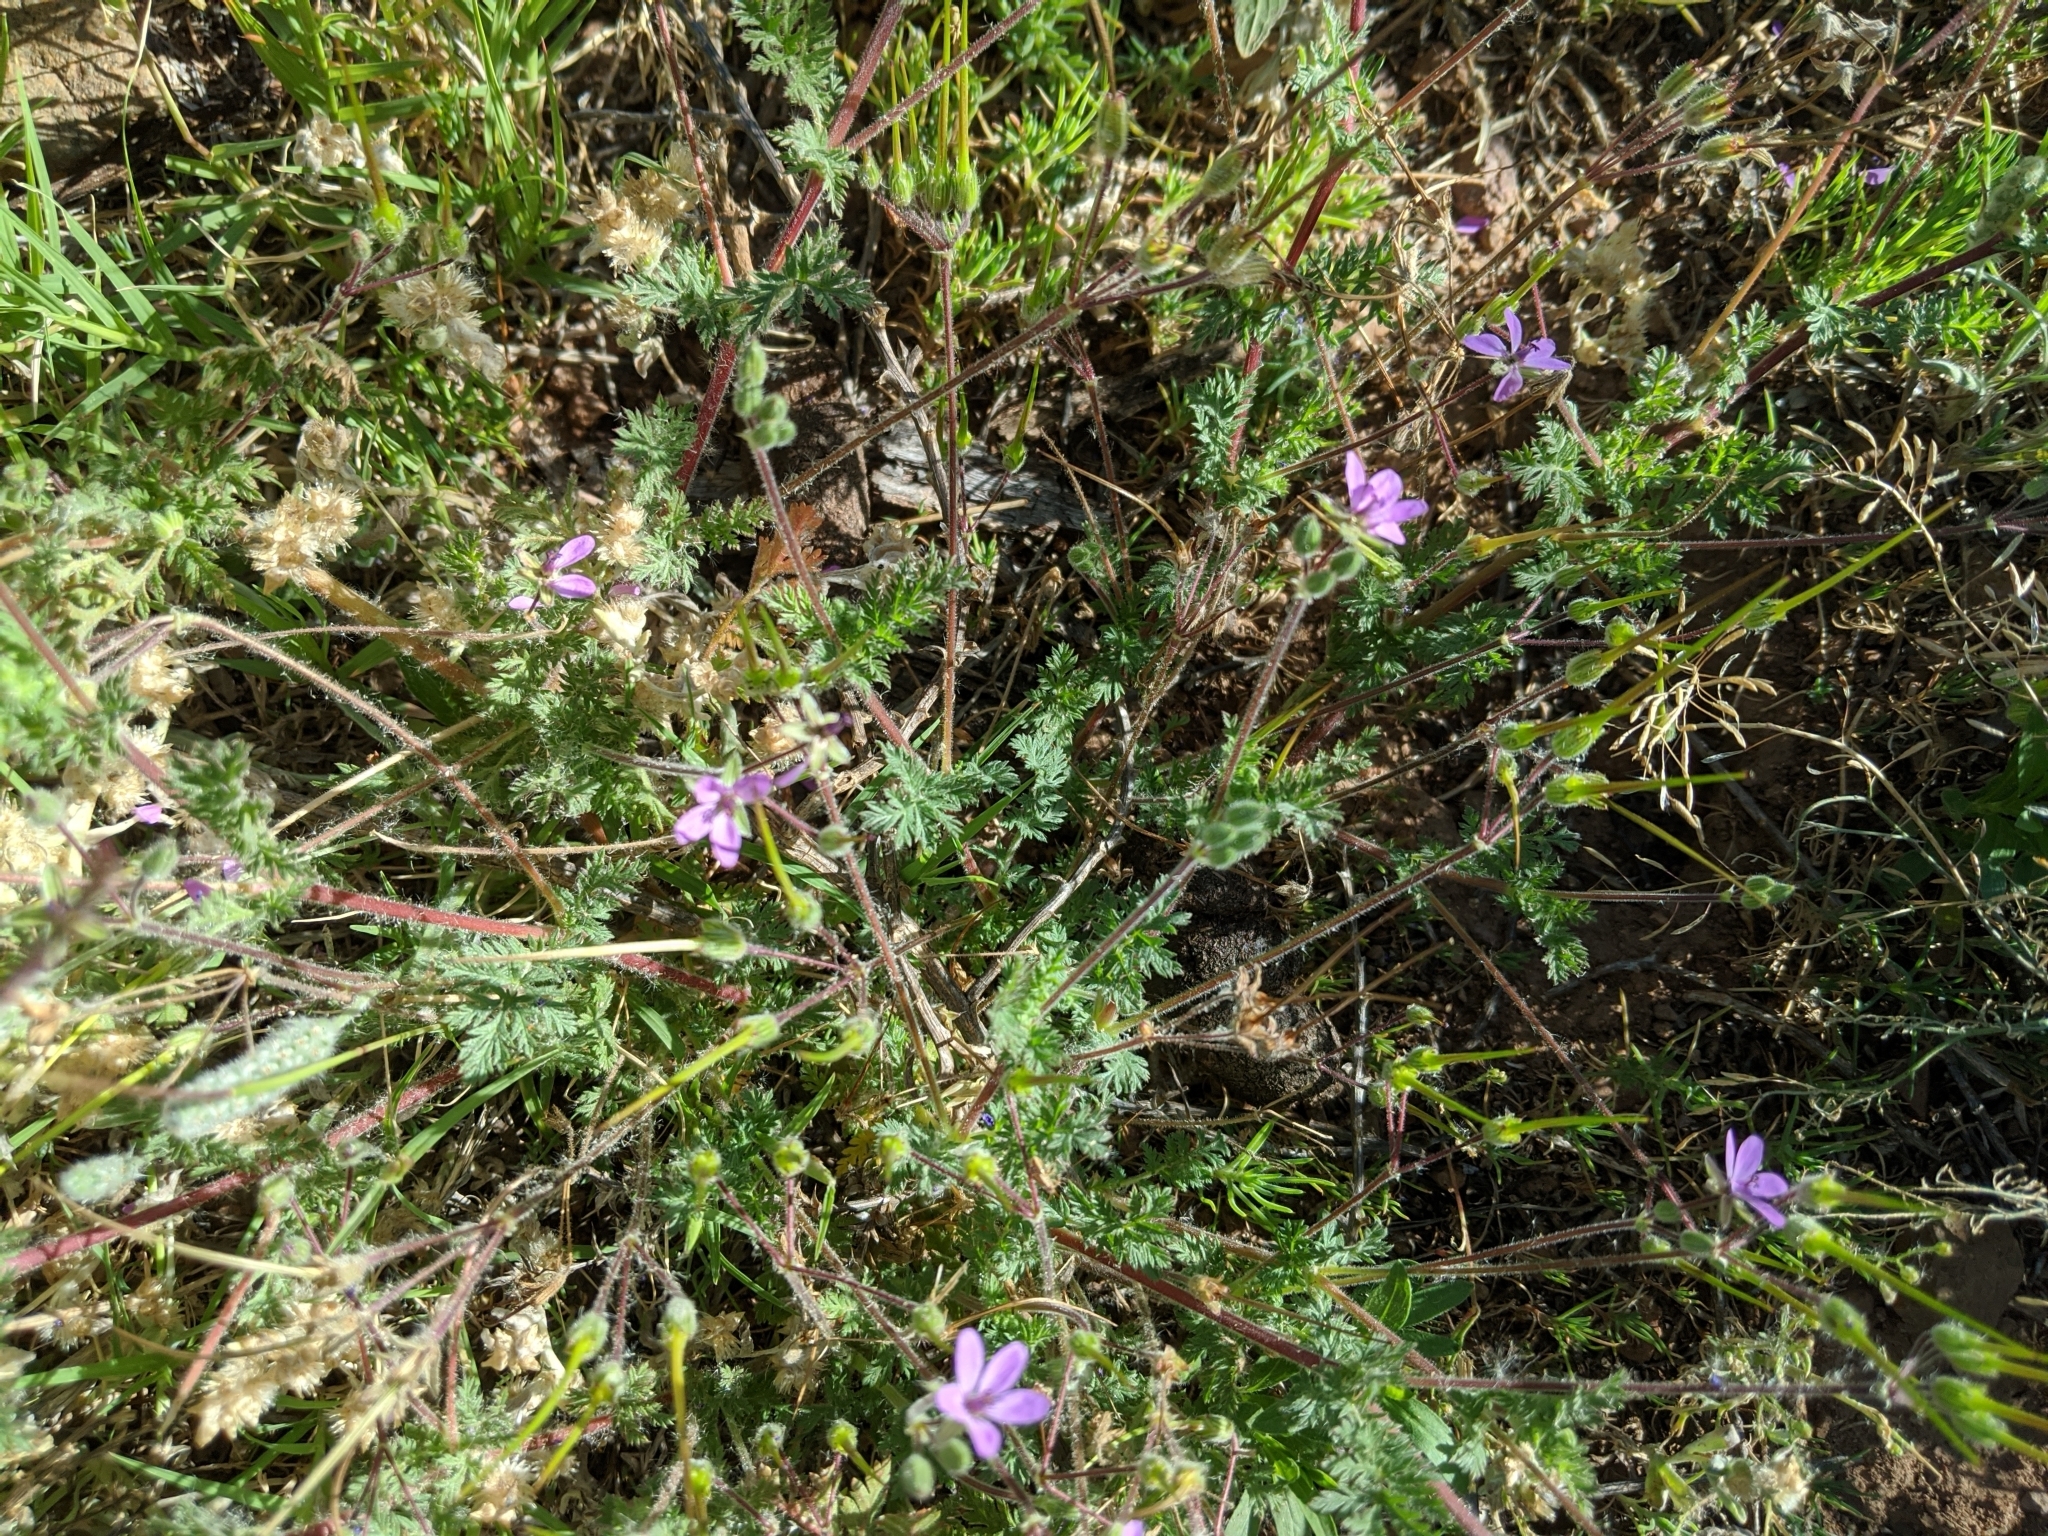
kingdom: Plantae
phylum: Tracheophyta
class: Magnoliopsida
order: Geraniales
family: Geraniaceae
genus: Erodium
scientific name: Erodium cicutarium
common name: Common stork's-bill
